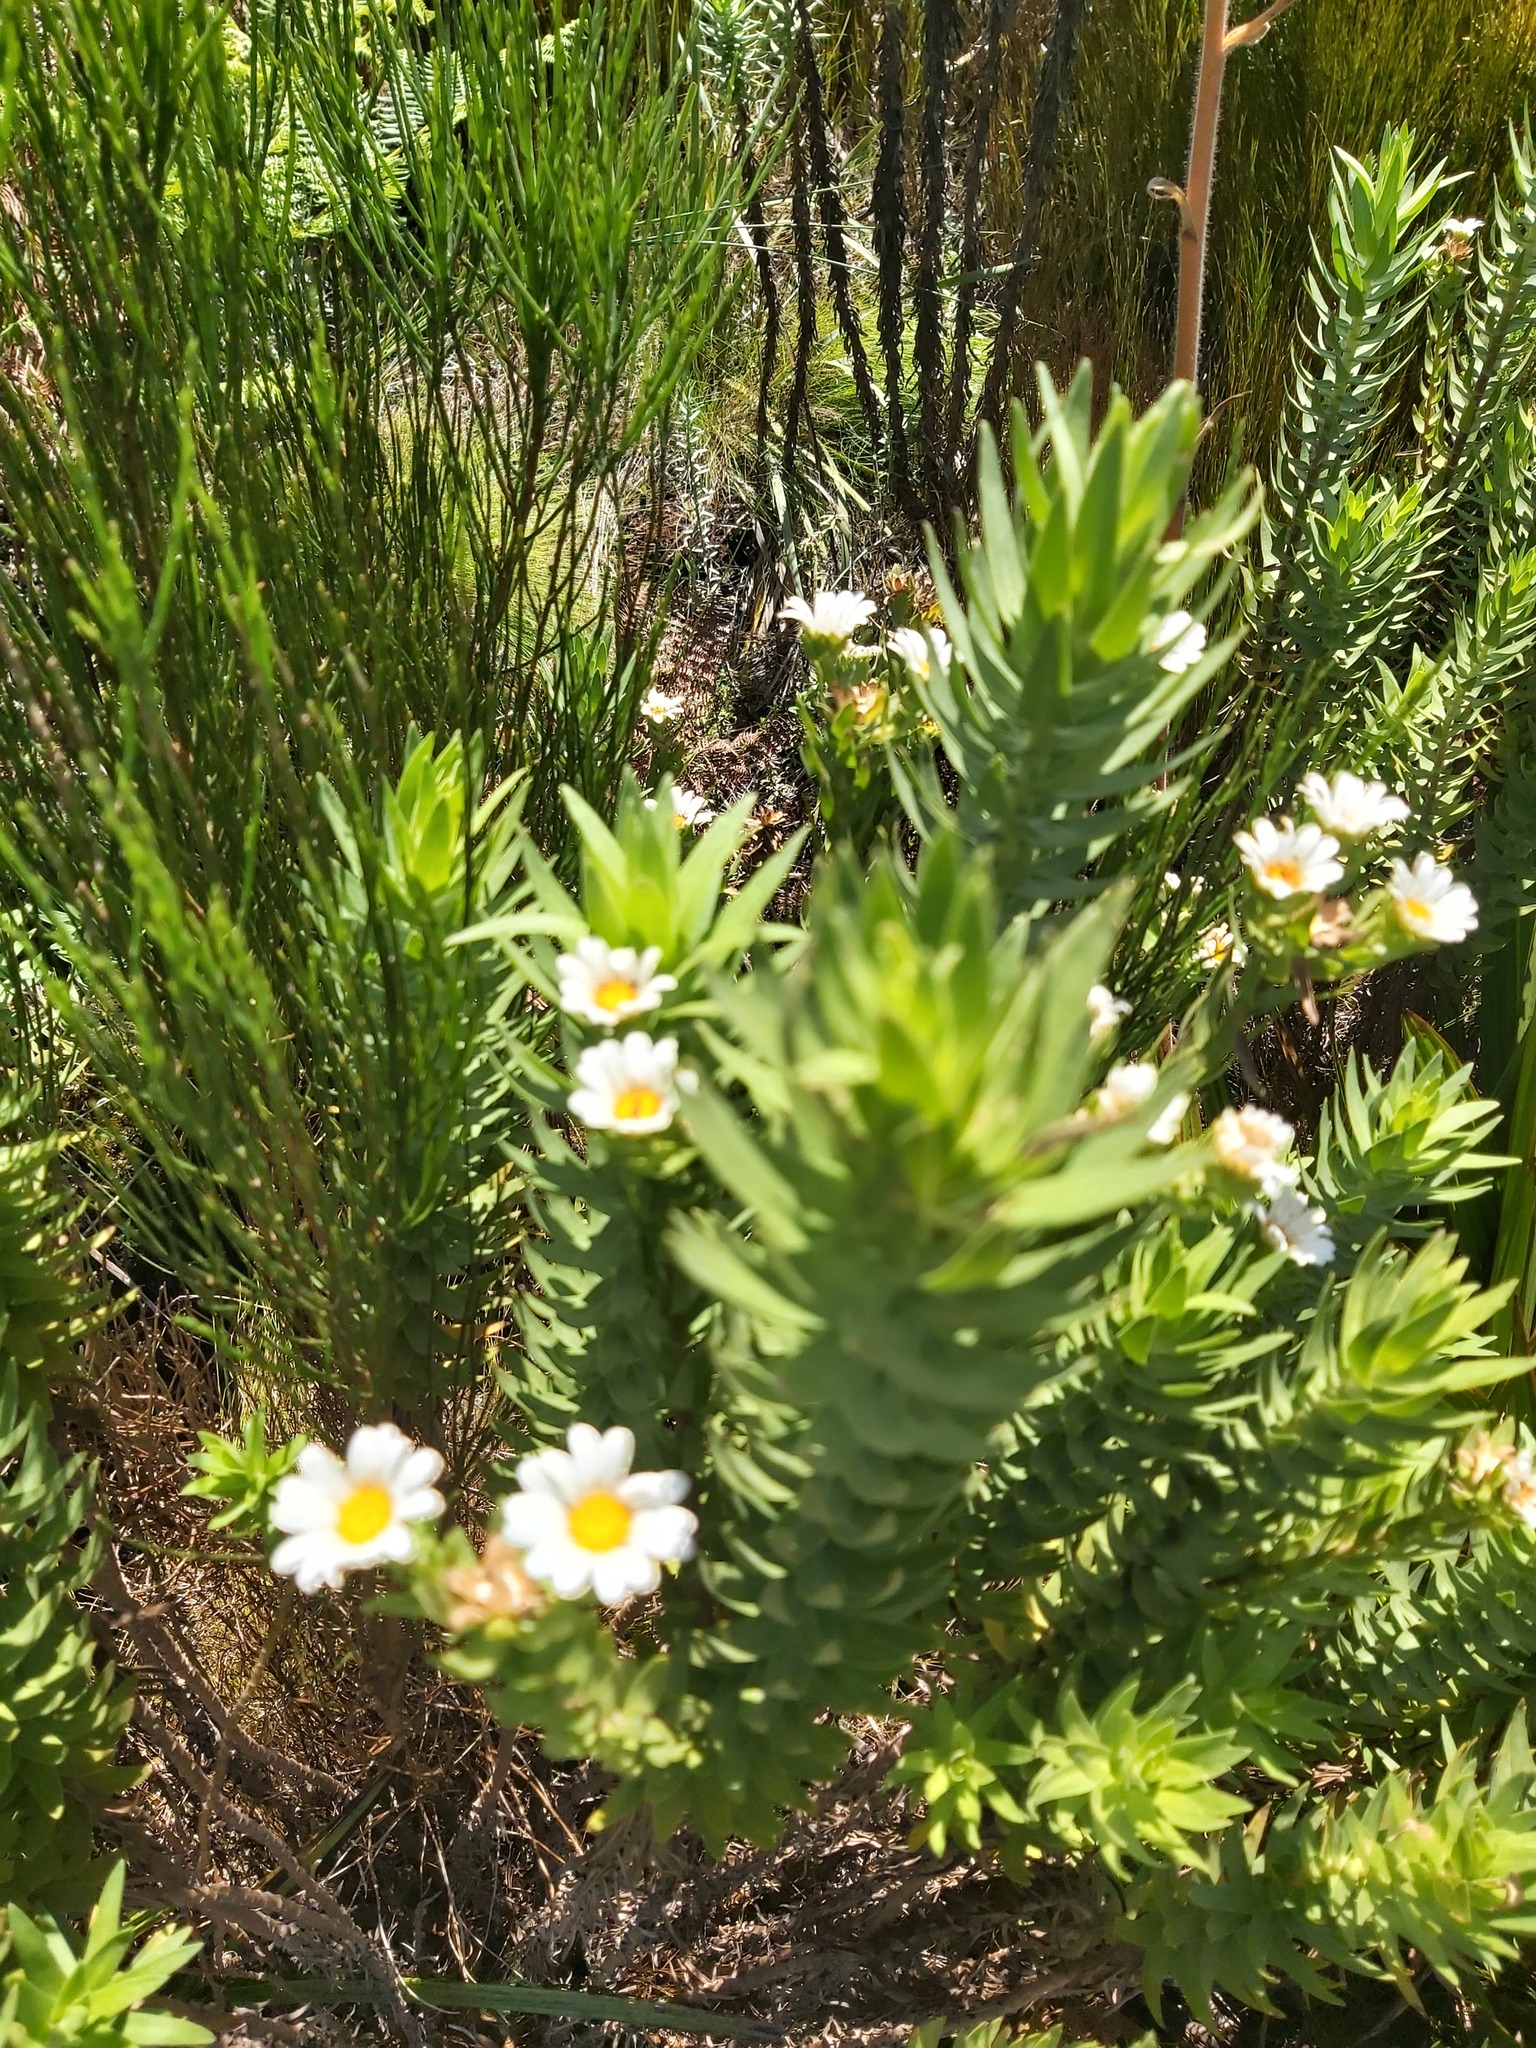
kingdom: Plantae
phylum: Tracheophyta
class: Magnoliopsida
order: Asterales
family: Asteraceae
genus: Osmitopsis
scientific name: Osmitopsis asteriscoides
